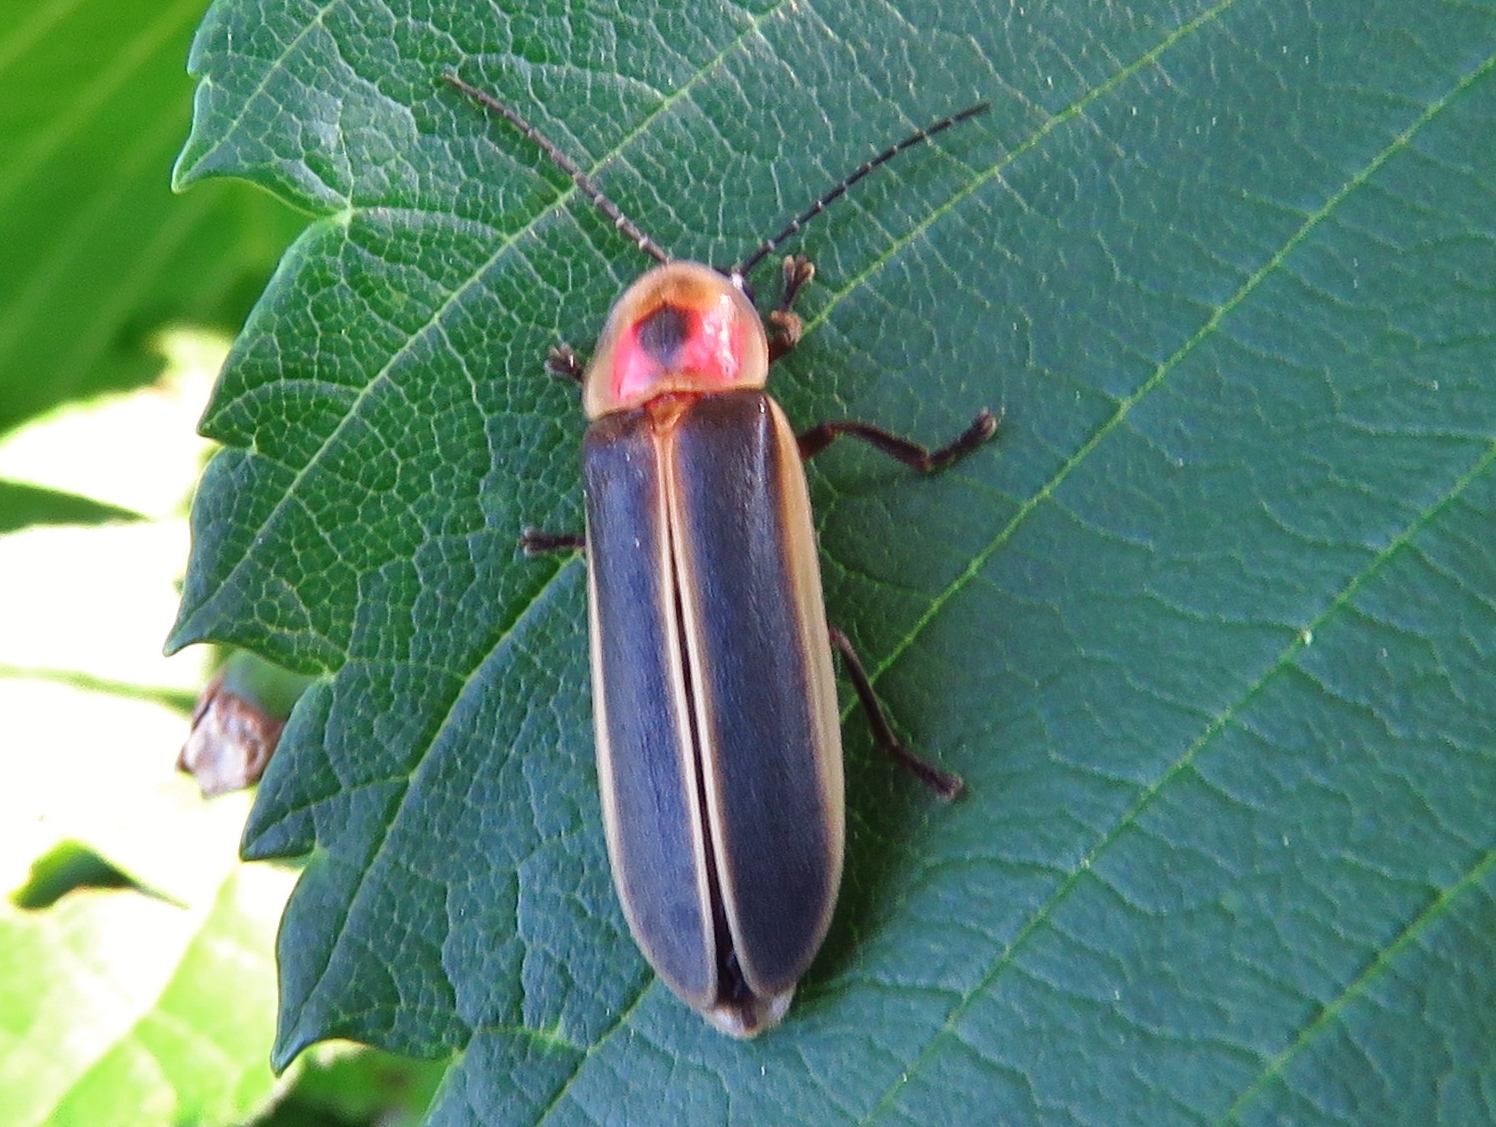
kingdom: Animalia
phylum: Arthropoda
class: Insecta
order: Coleoptera
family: Lampyridae
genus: Photinus
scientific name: Photinus pyralis
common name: Big dipper firefly
